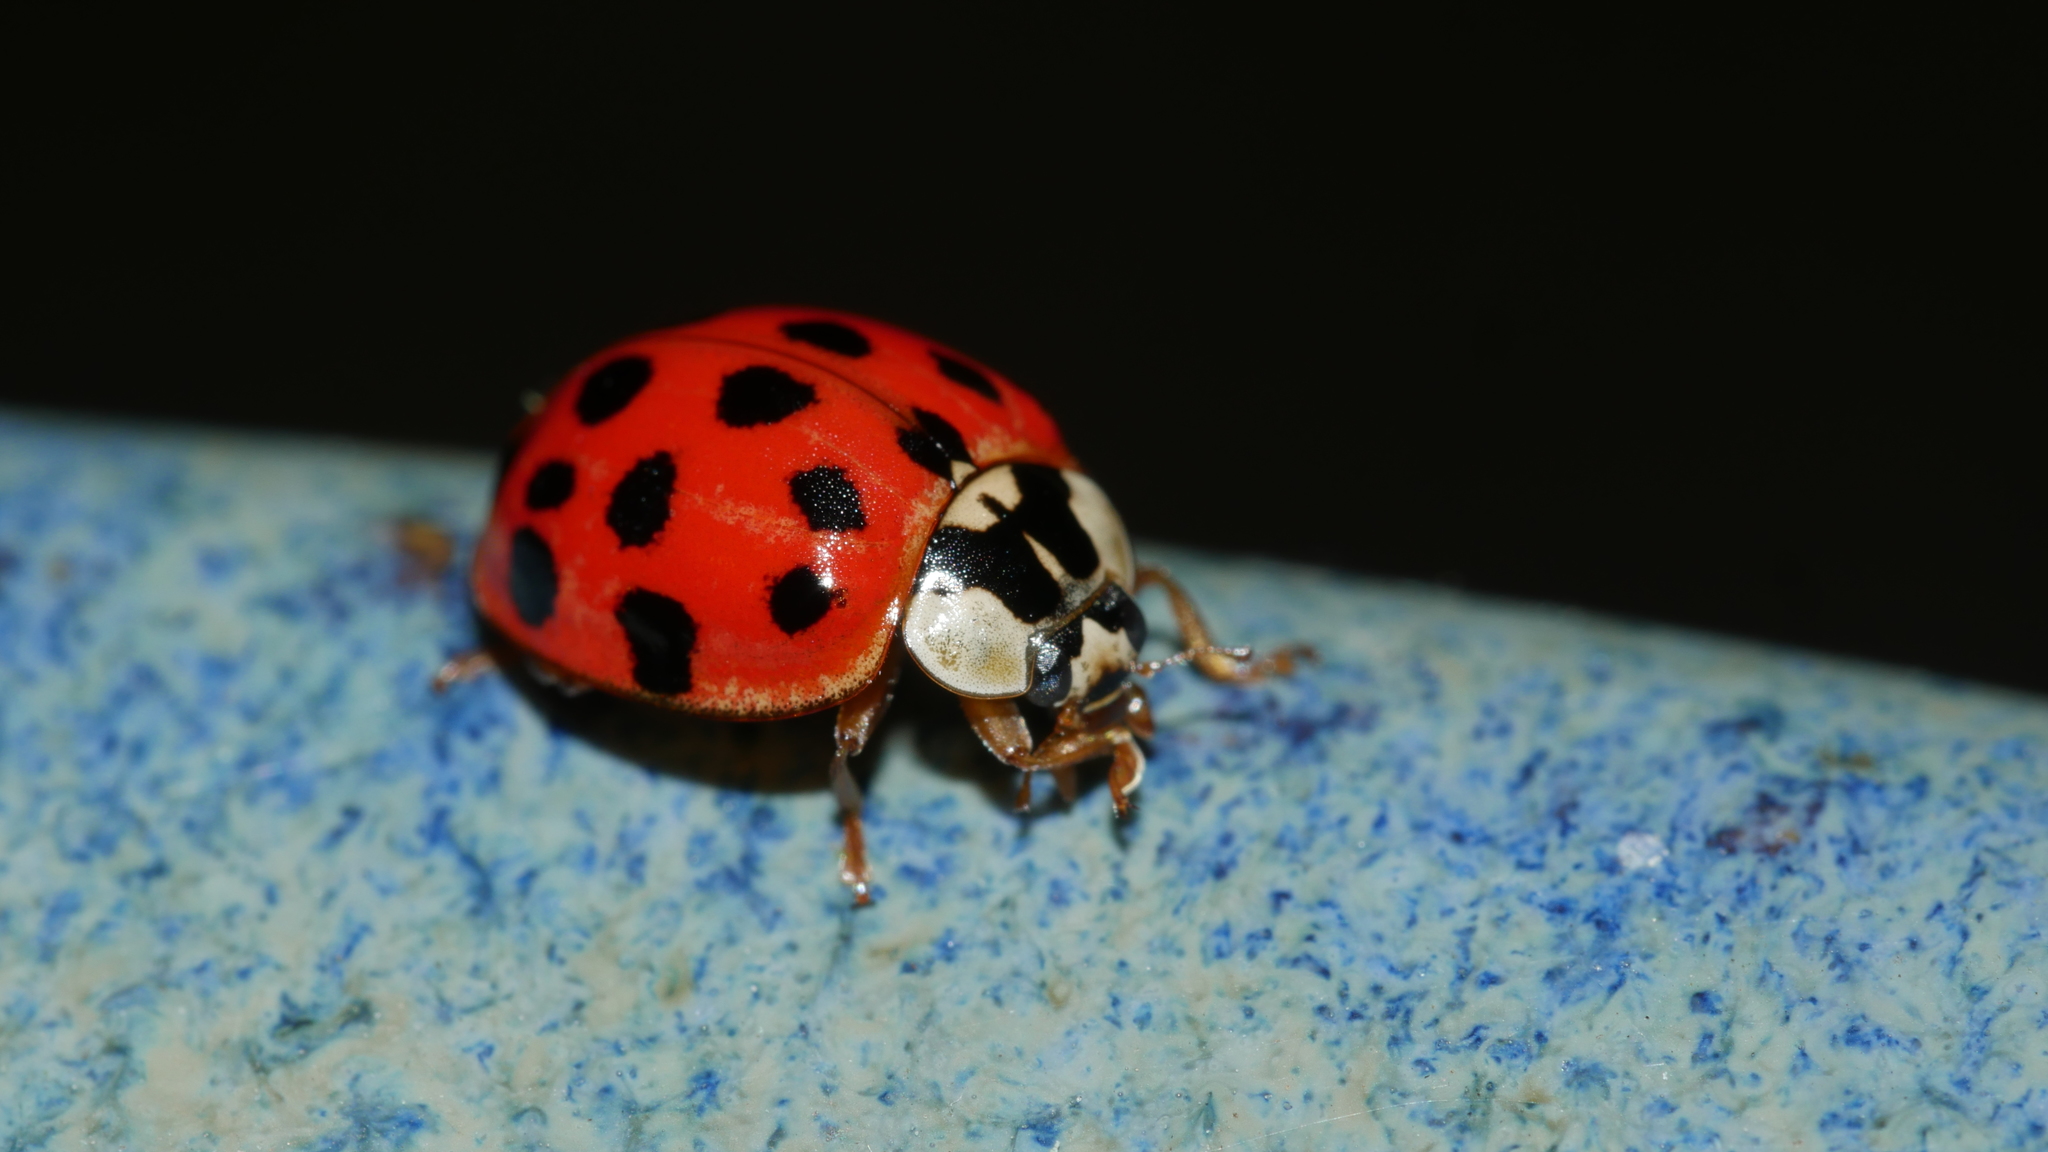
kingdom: Animalia
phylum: Arthropoda
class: Insecta
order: Coleoptera
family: Coccinellidae
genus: Harmonia
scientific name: Harmonia axyridis
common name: Harlequin ladybird
